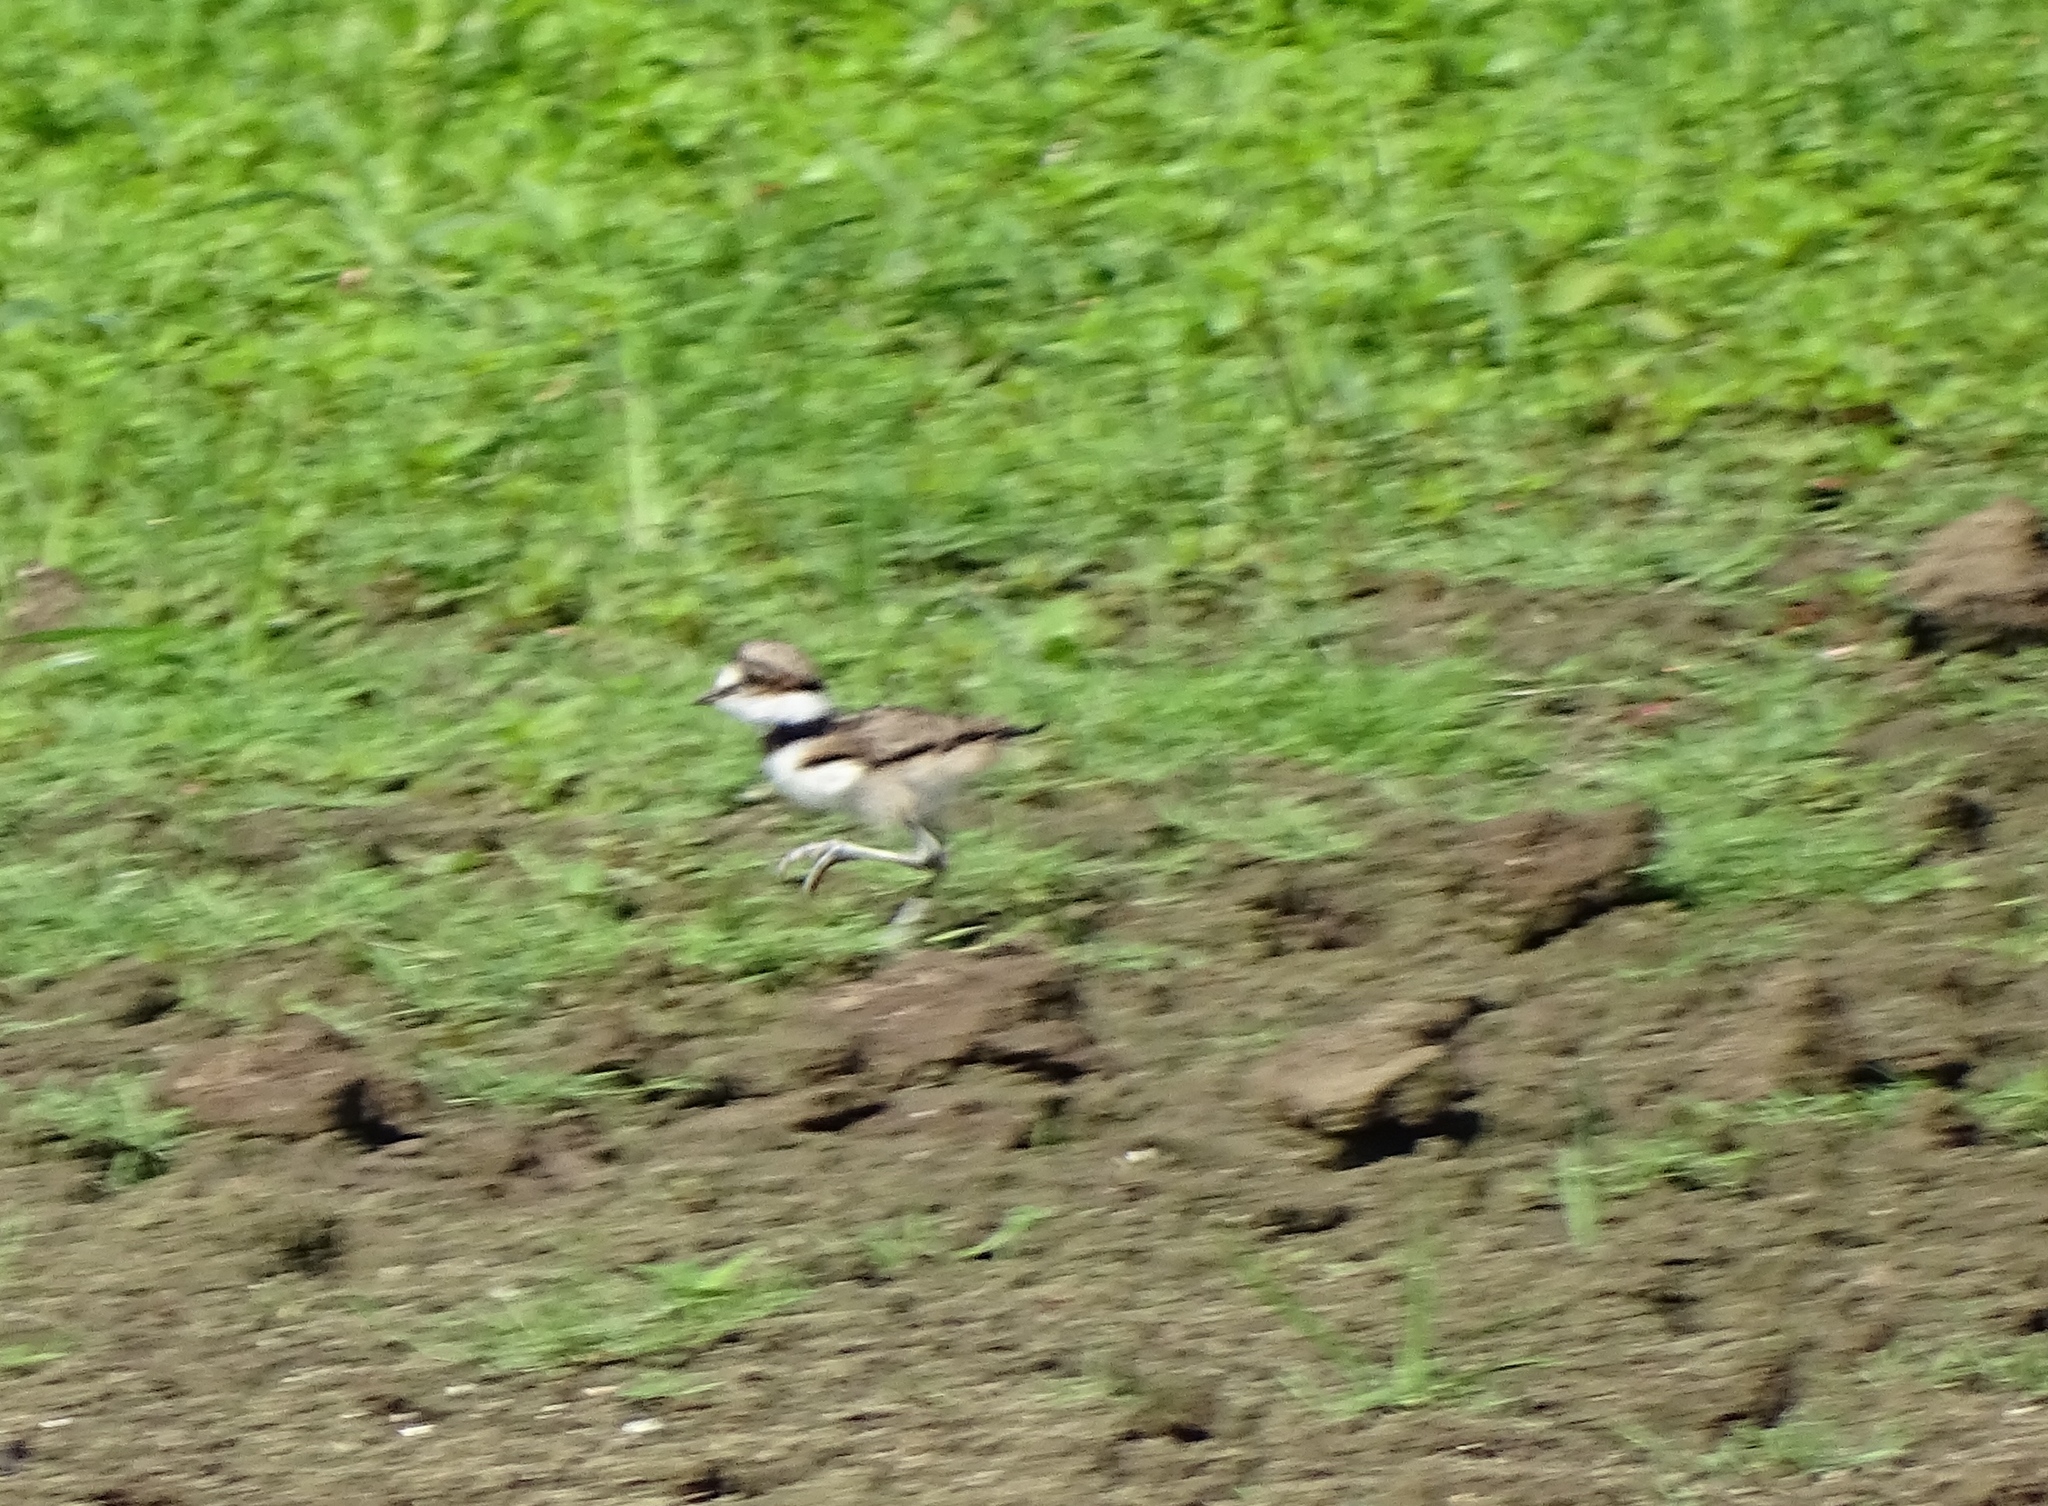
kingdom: Animalia
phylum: Chordata
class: Aves
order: Charadriiformes
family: Charadriidae
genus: Charadrius
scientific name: Charadrius vociferus
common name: Killdeer
